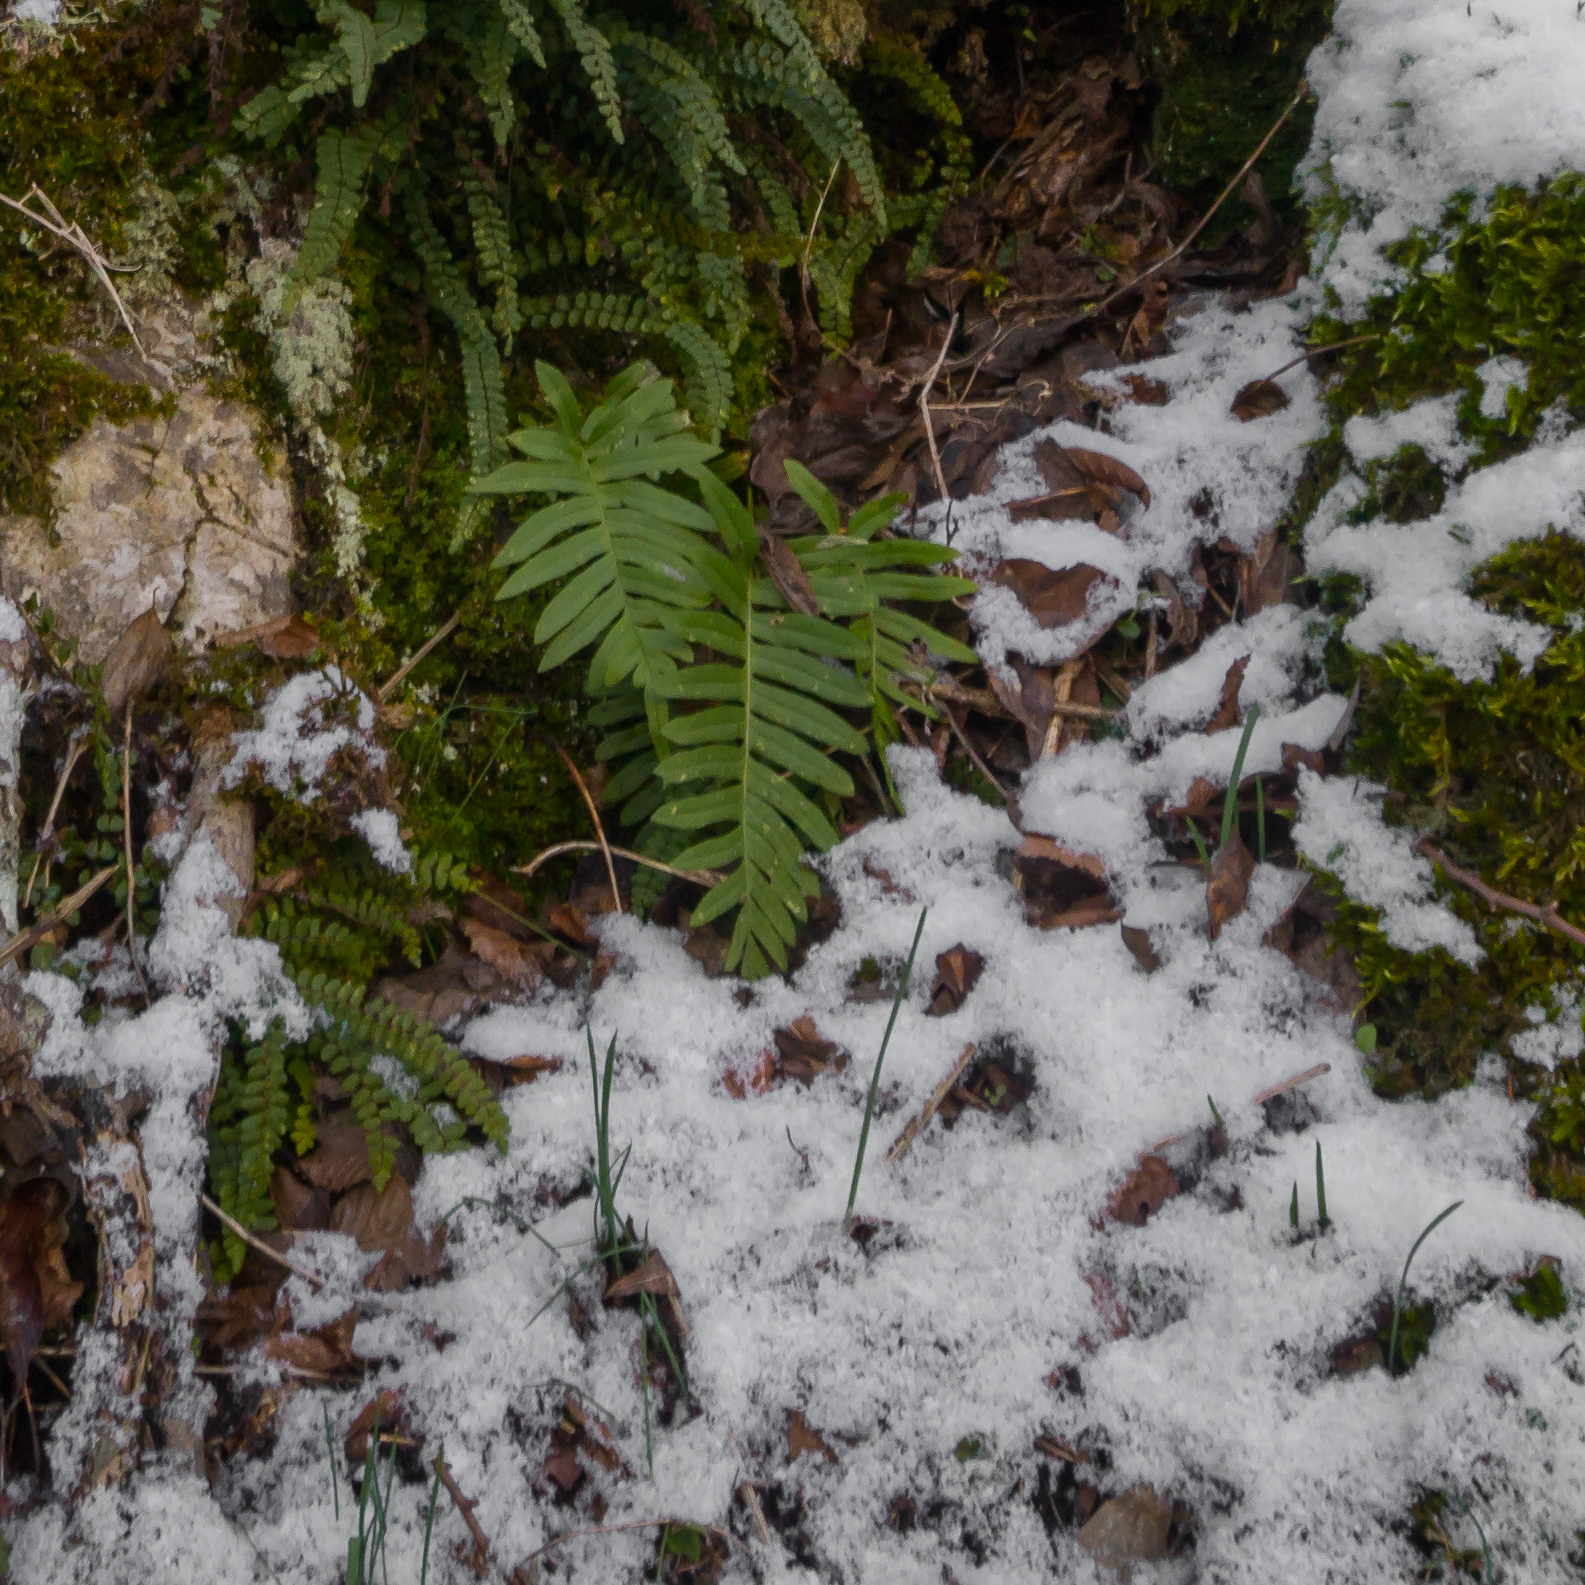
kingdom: Plantae
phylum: Tracheophyta
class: Polypodiopsida
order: Polypodiales
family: Polypodiaceae
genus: Polypodium
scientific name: Polypodium vulgare
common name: Common polypody
